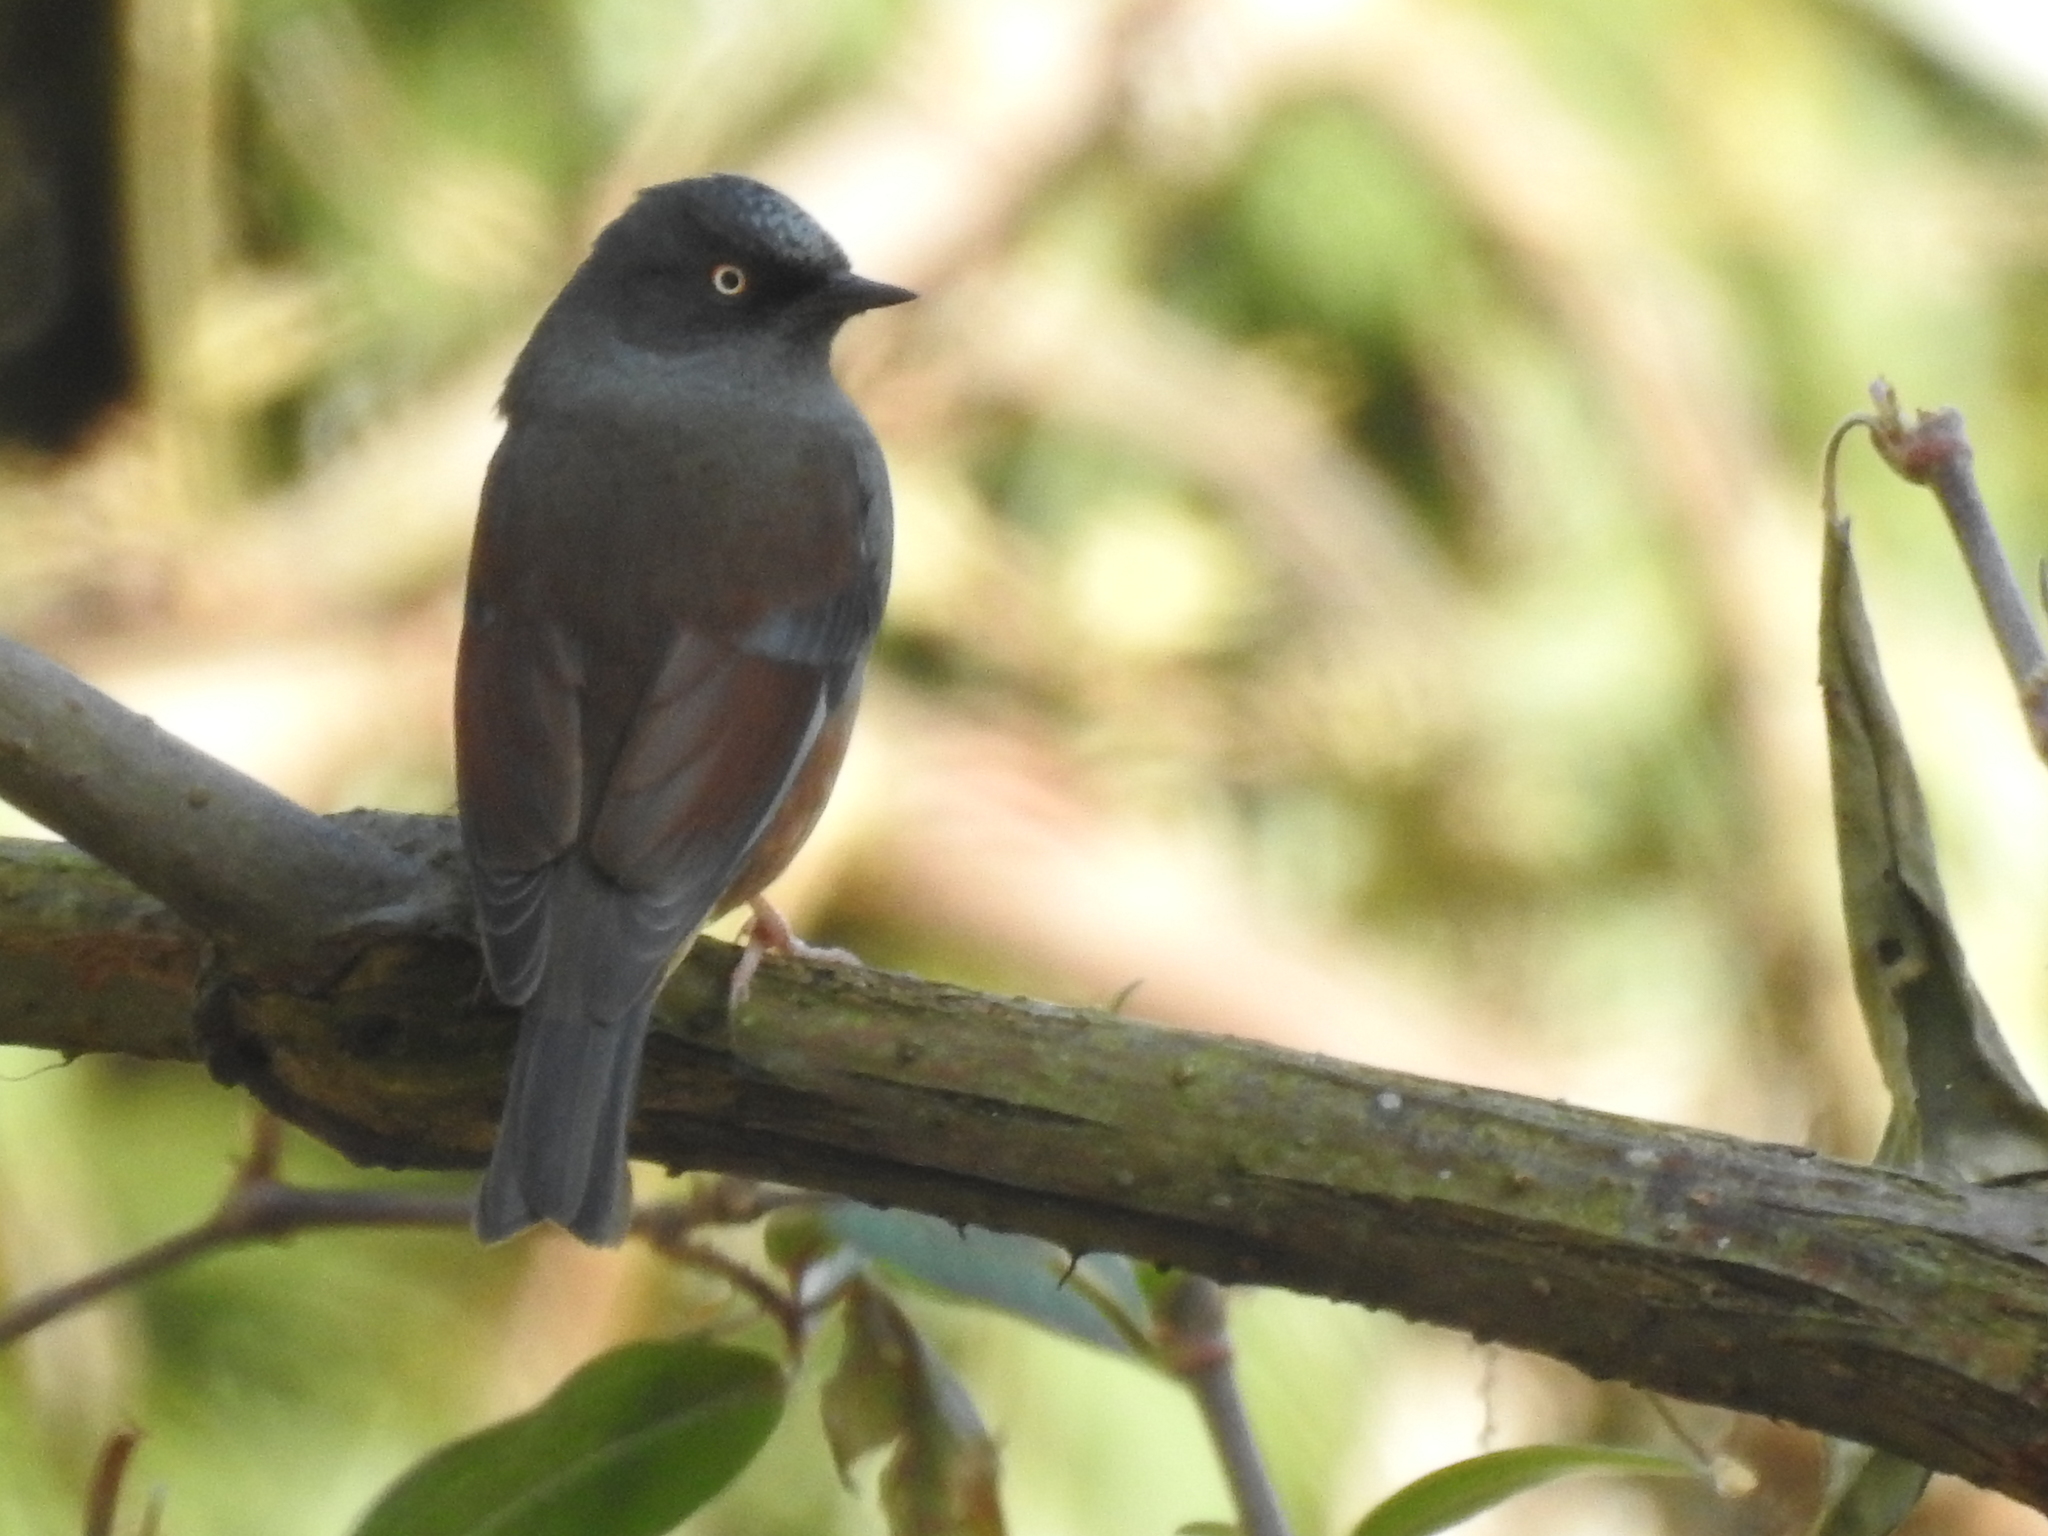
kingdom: Animalia
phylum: Chordata
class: Aves
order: Passeriformes
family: Prunellidae
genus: Prunella
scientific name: Prunella immaculata
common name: Maroon-backed accentor
